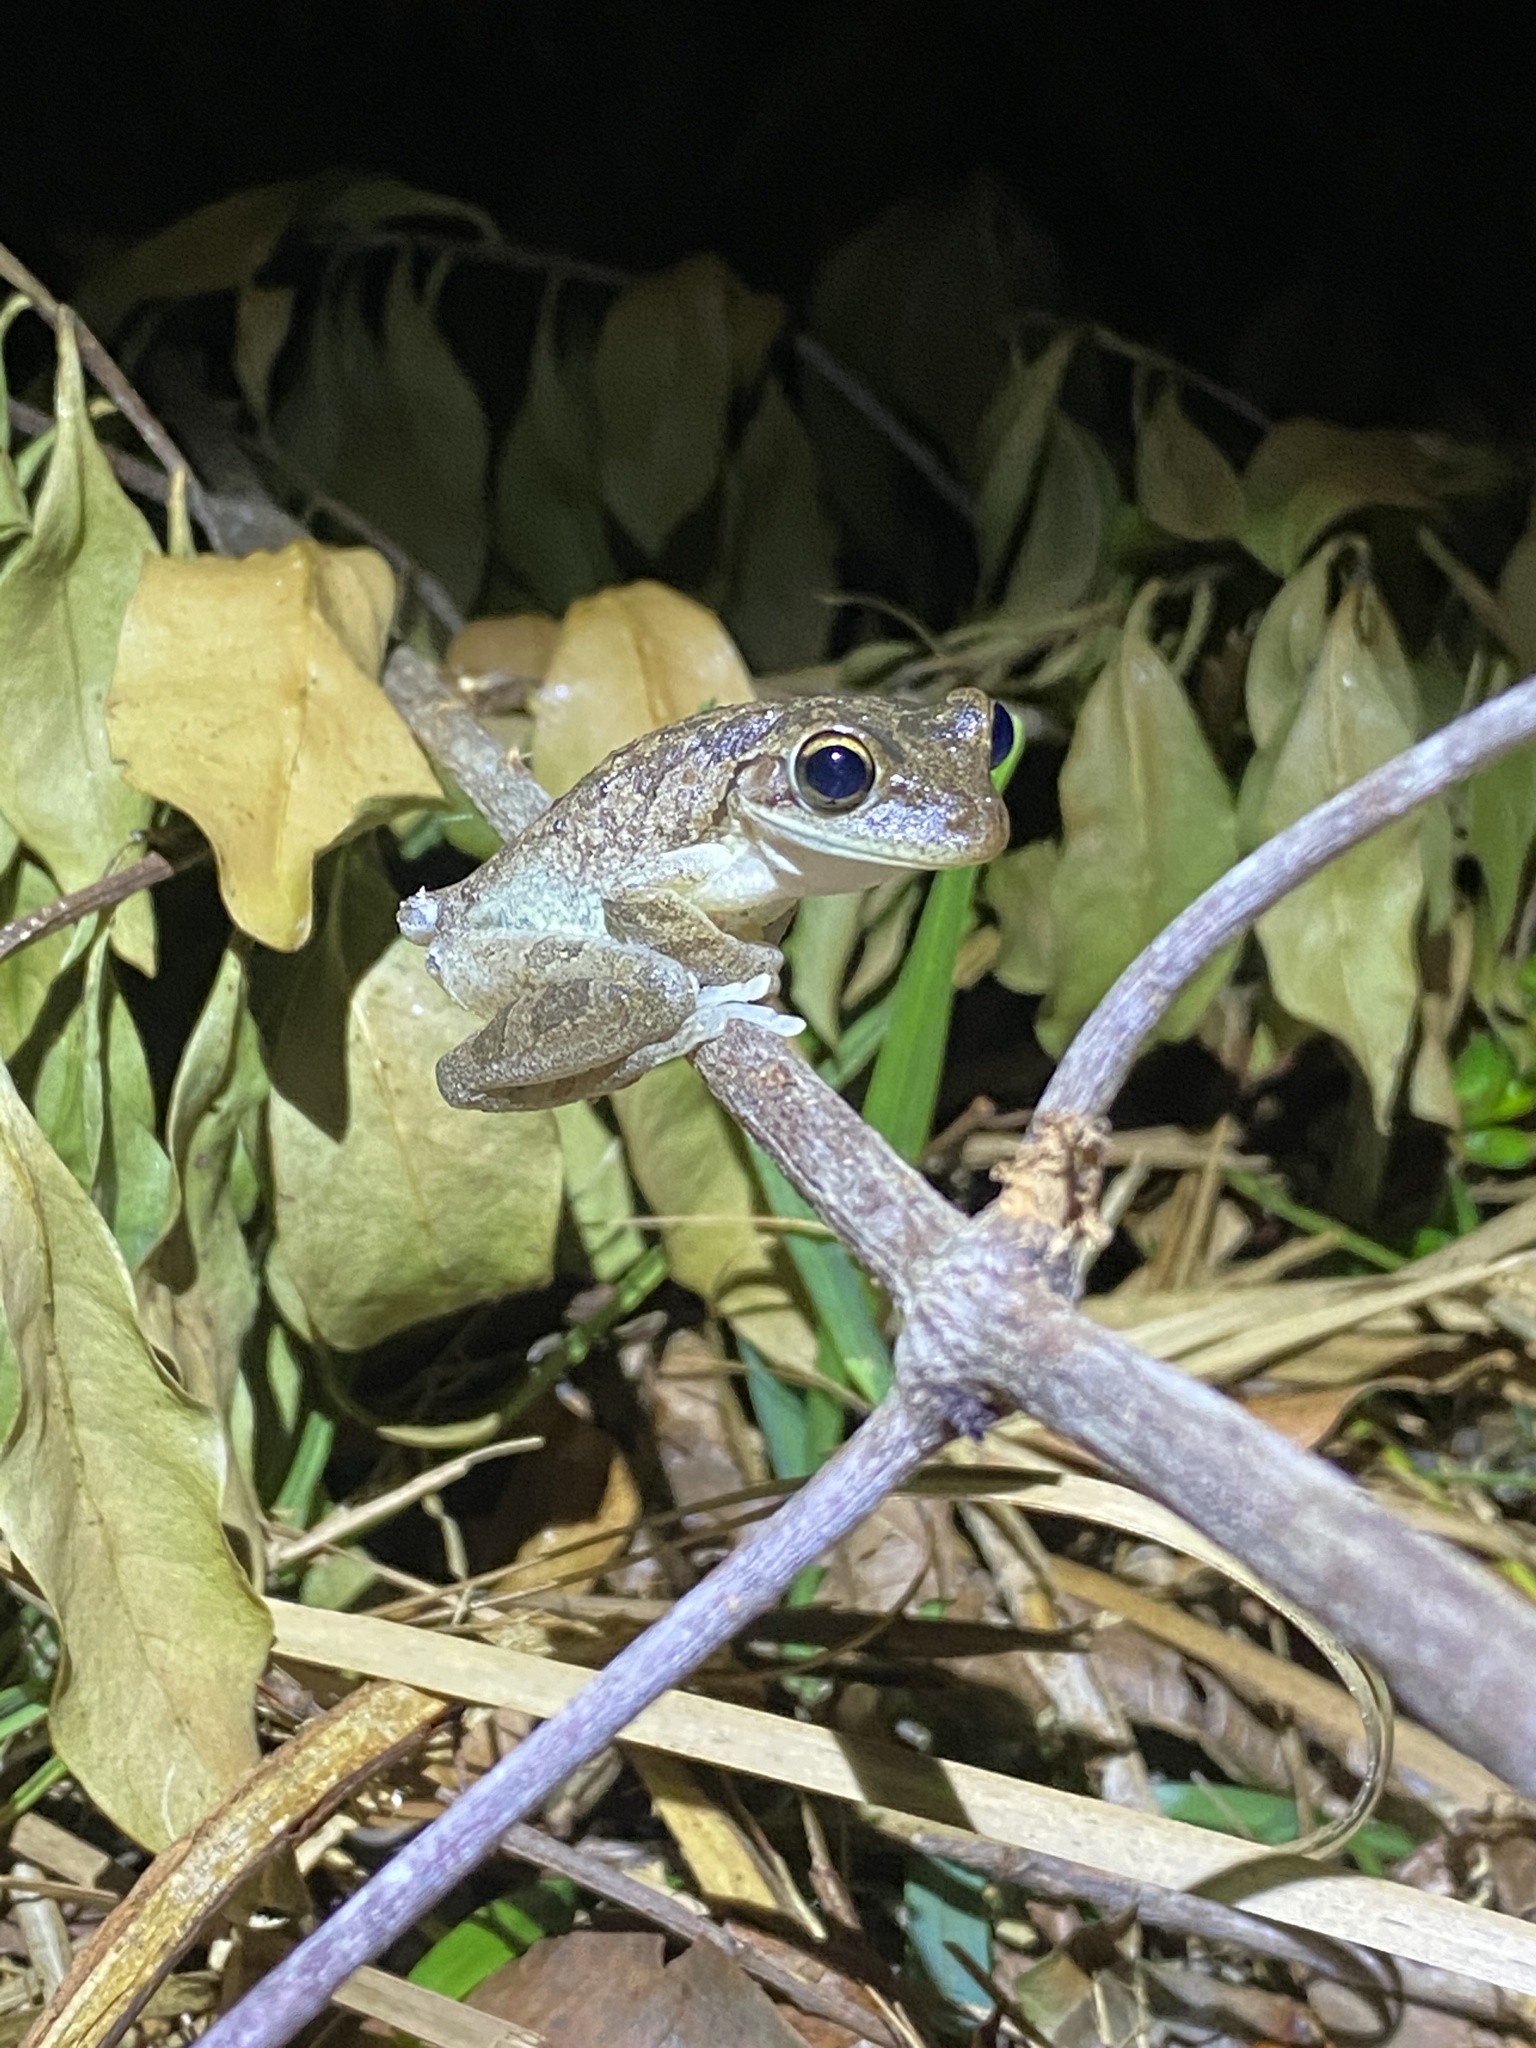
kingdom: Animalia
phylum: Chordata
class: Amphibia
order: Anura
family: Hylidae
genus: Osteopilus
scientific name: Osteopilus septentrionalis
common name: Cuban treefrog
